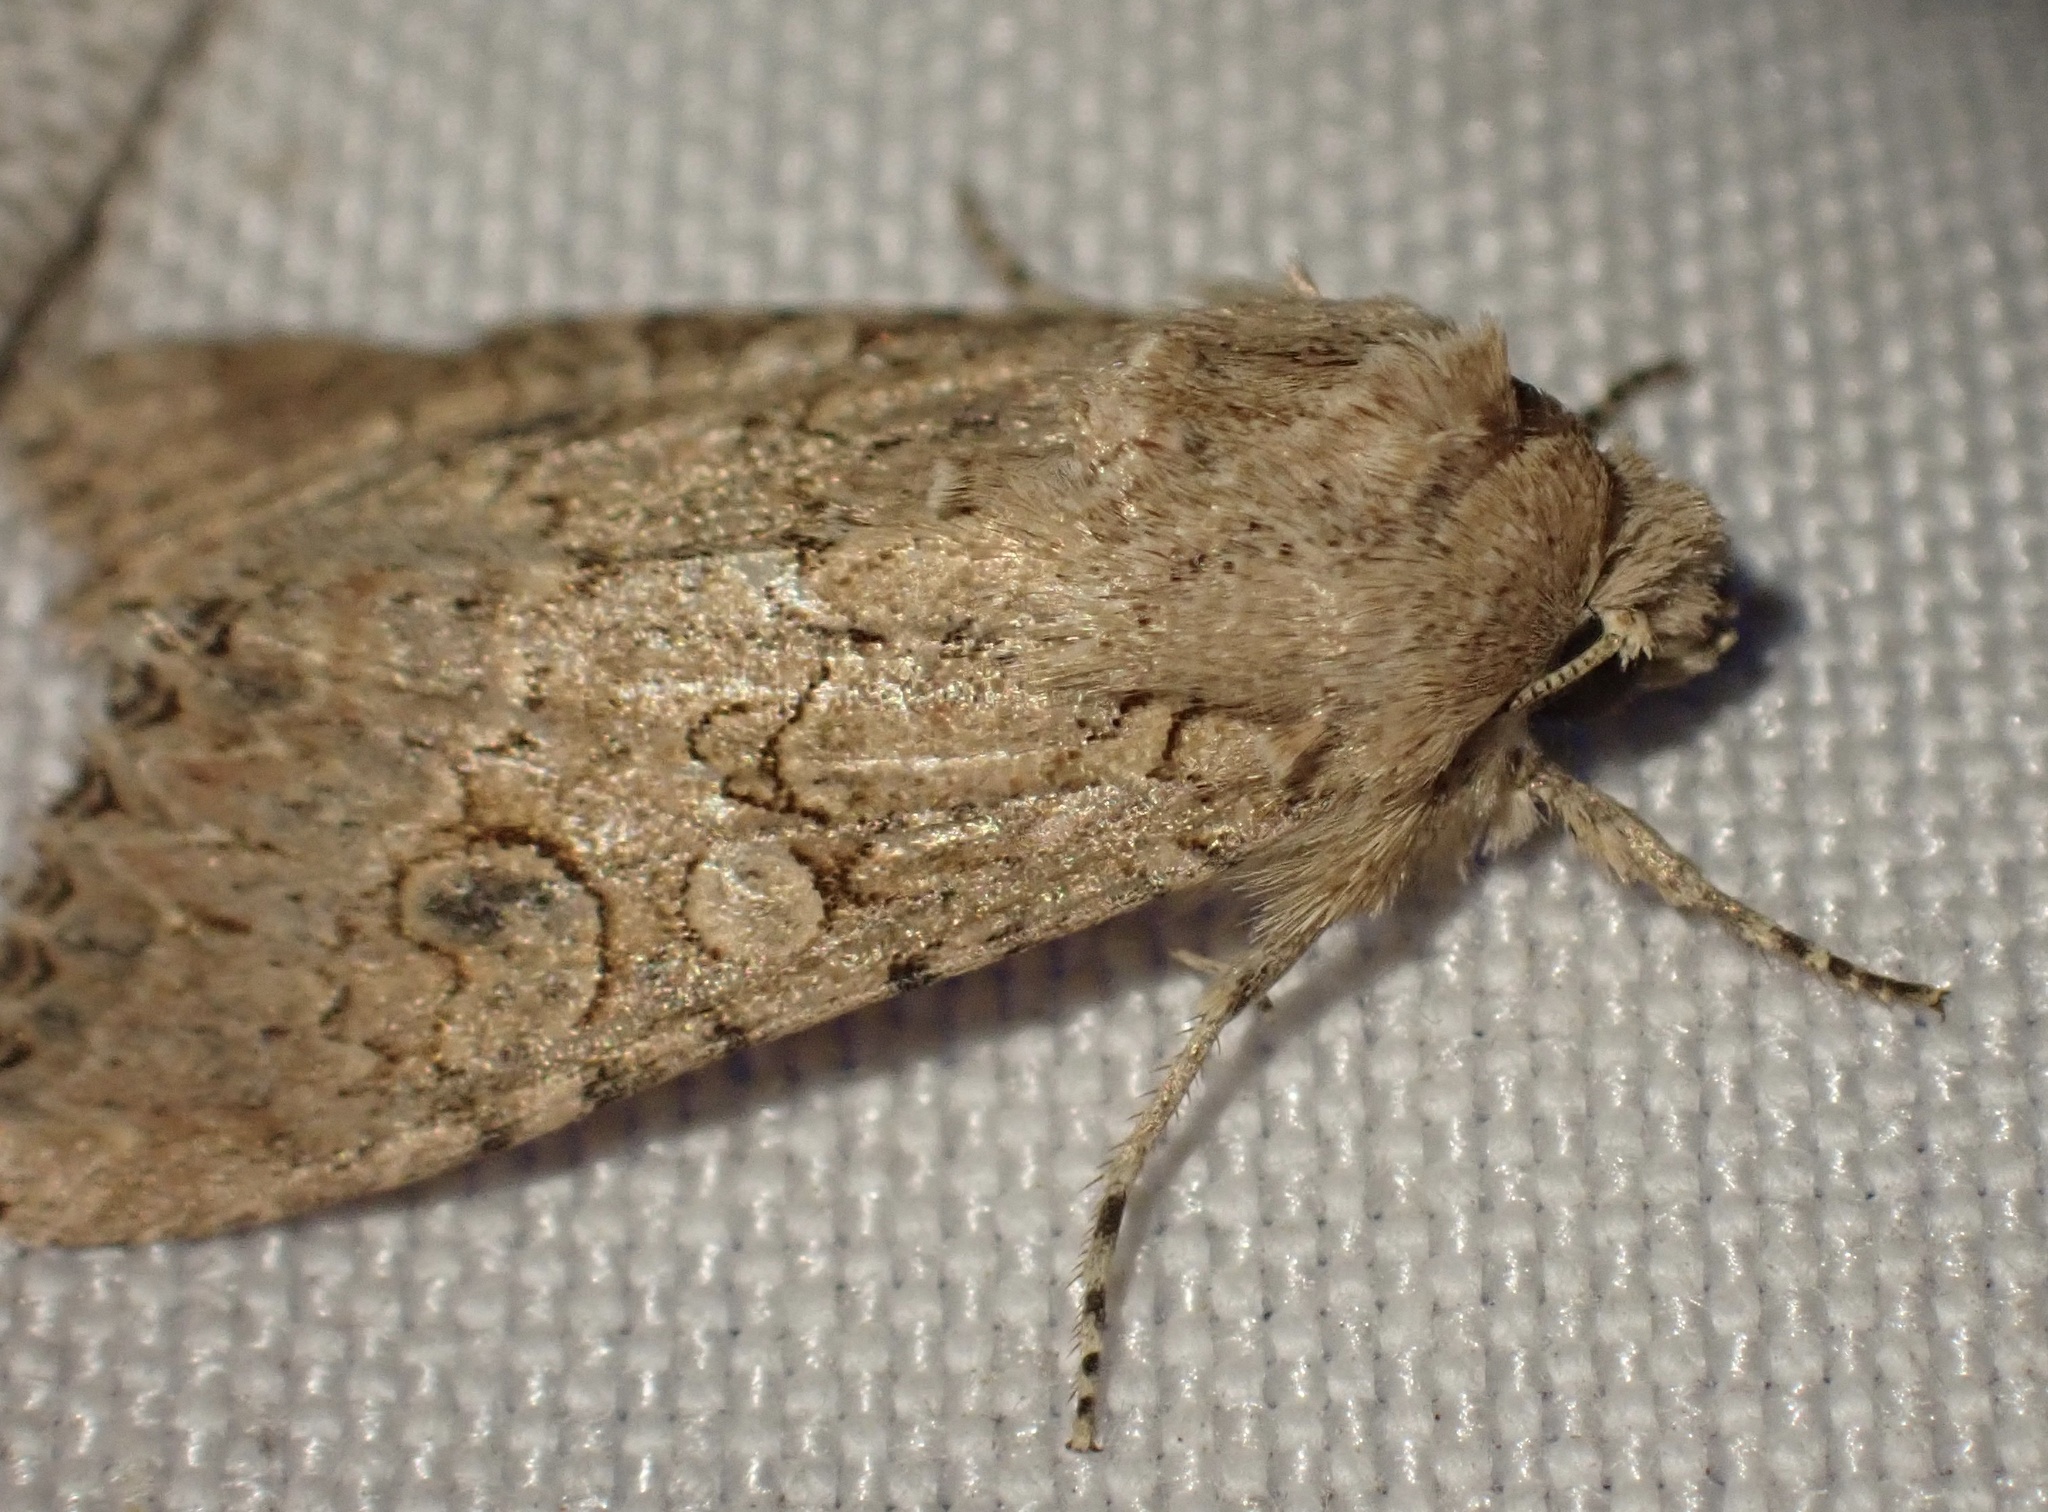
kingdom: Animalia
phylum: Arthropoda
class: Insecta
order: Lepidoptera
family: Noctuidae
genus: Anarta
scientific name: Anarta trifolii
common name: Clover cutworm moth
